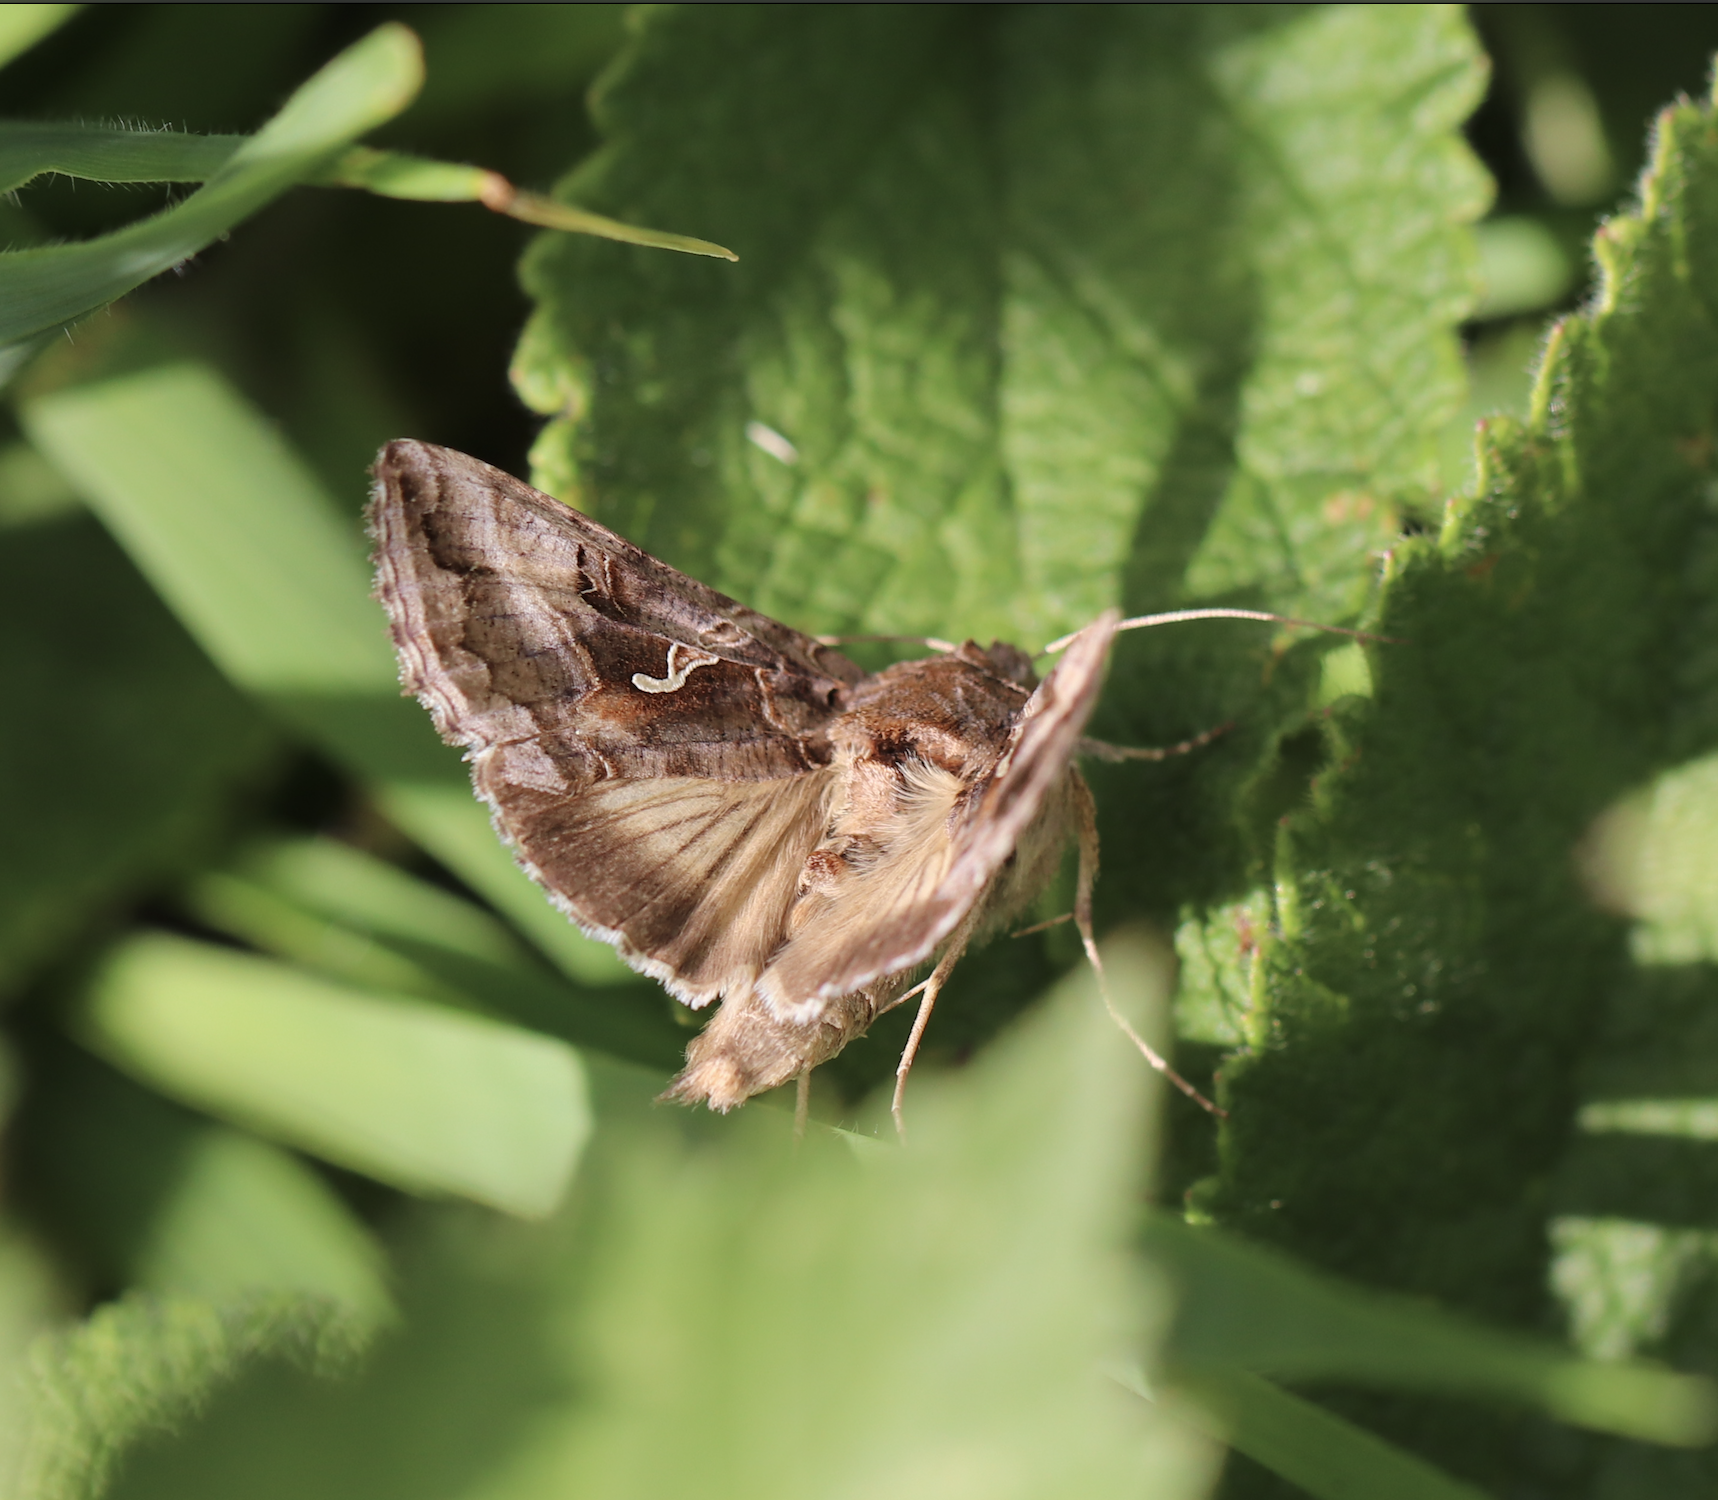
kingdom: Animalia
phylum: Arthropoda
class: Insecta
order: Lepidoptera
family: Noctuidae
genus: Autographa
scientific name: Autographa gamma
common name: Silver y
